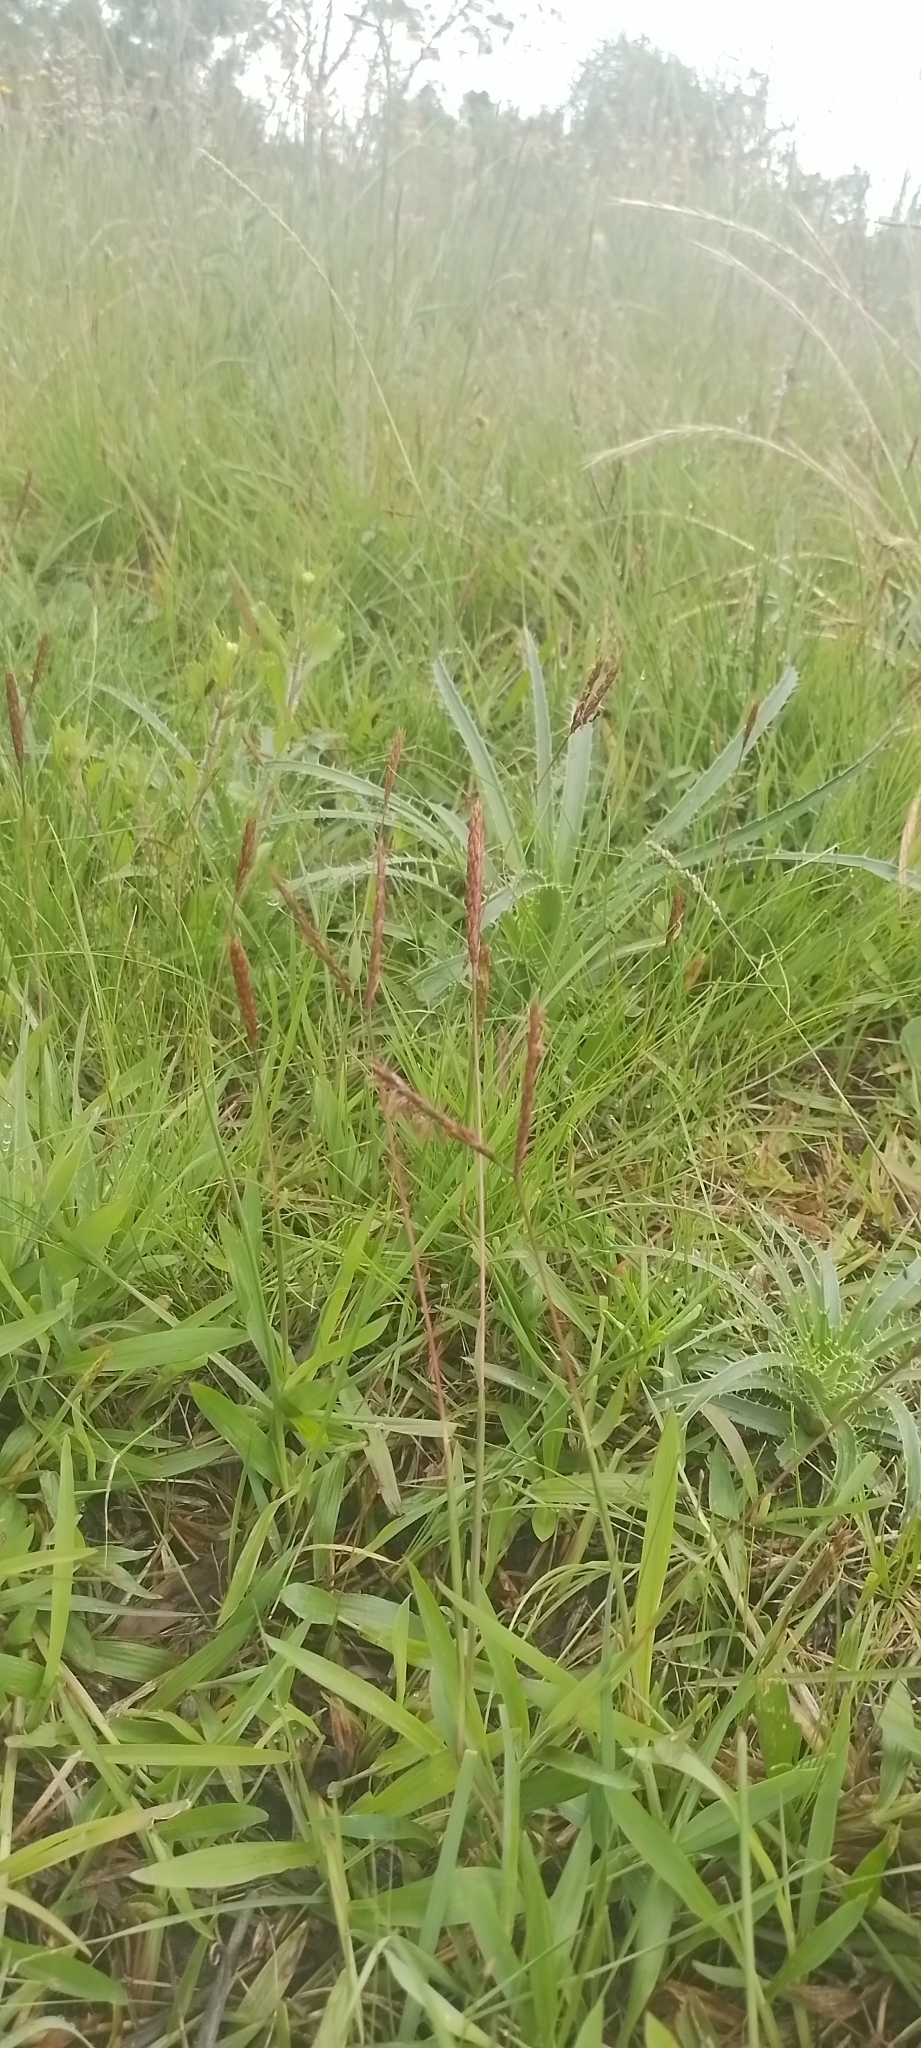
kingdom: Plantae
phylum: Tracheophyta
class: Liliopsida
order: Poales
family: Poaceae
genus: Ischaemum
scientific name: Ischaemum minus
